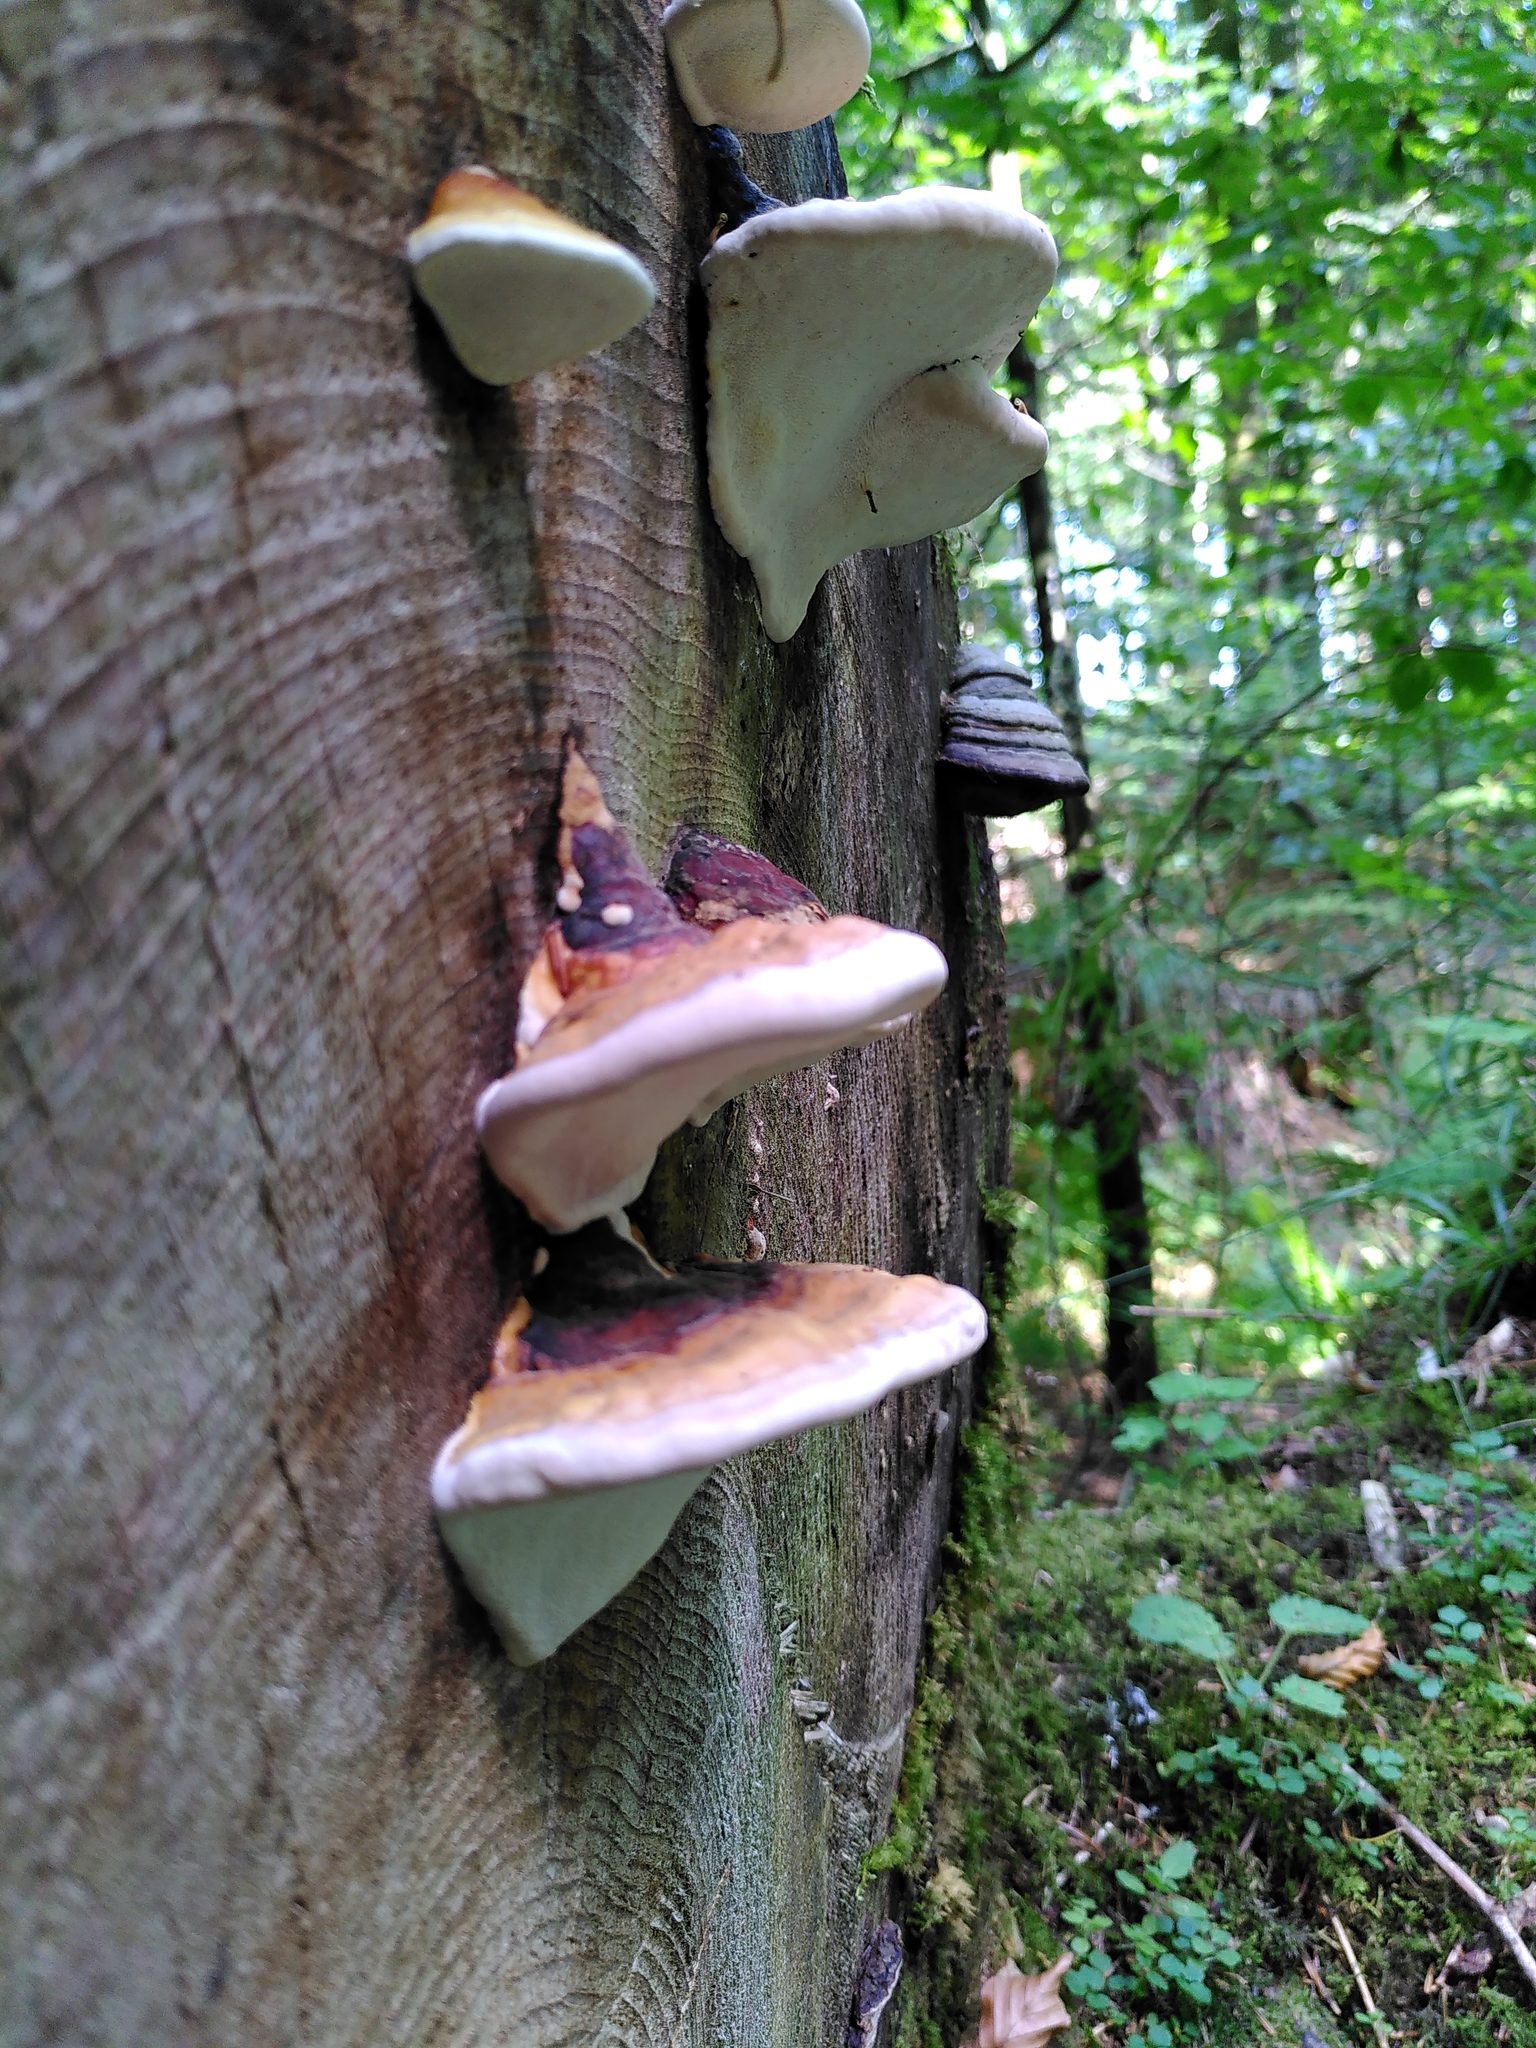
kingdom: Fungi
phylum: Basidiomycota
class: Agaricomycetes
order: Polyporales
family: Fomitopsidaceae
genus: Fomitopsis
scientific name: Fomitopsis pinicola
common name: Red-belted bracket
